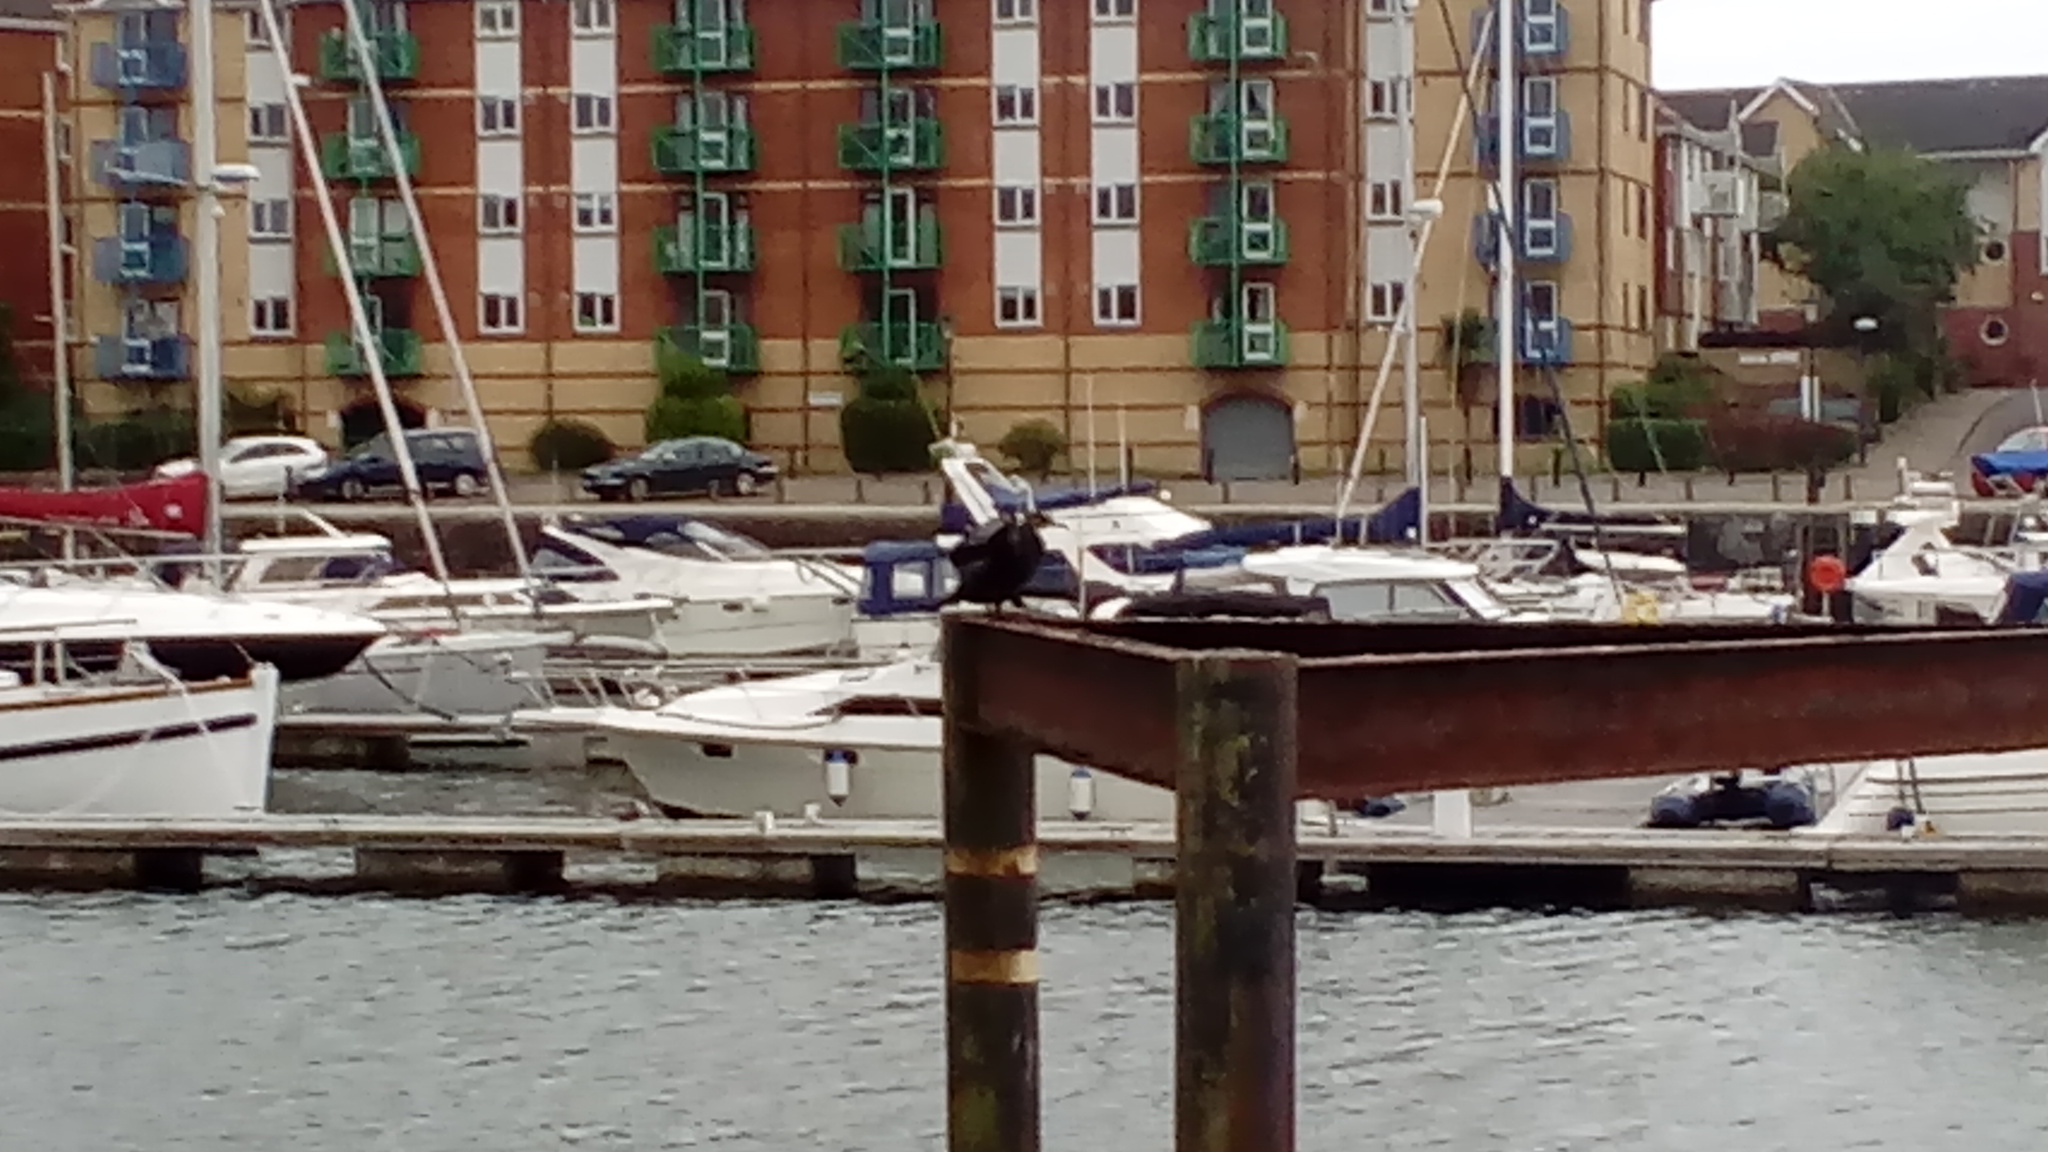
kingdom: Animalia
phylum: Chordata
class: Aves
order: Suliformes
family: Phalacrocoracidae
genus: Phalacrocorax
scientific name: Phalacrocorax carbo
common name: Great cormorant
